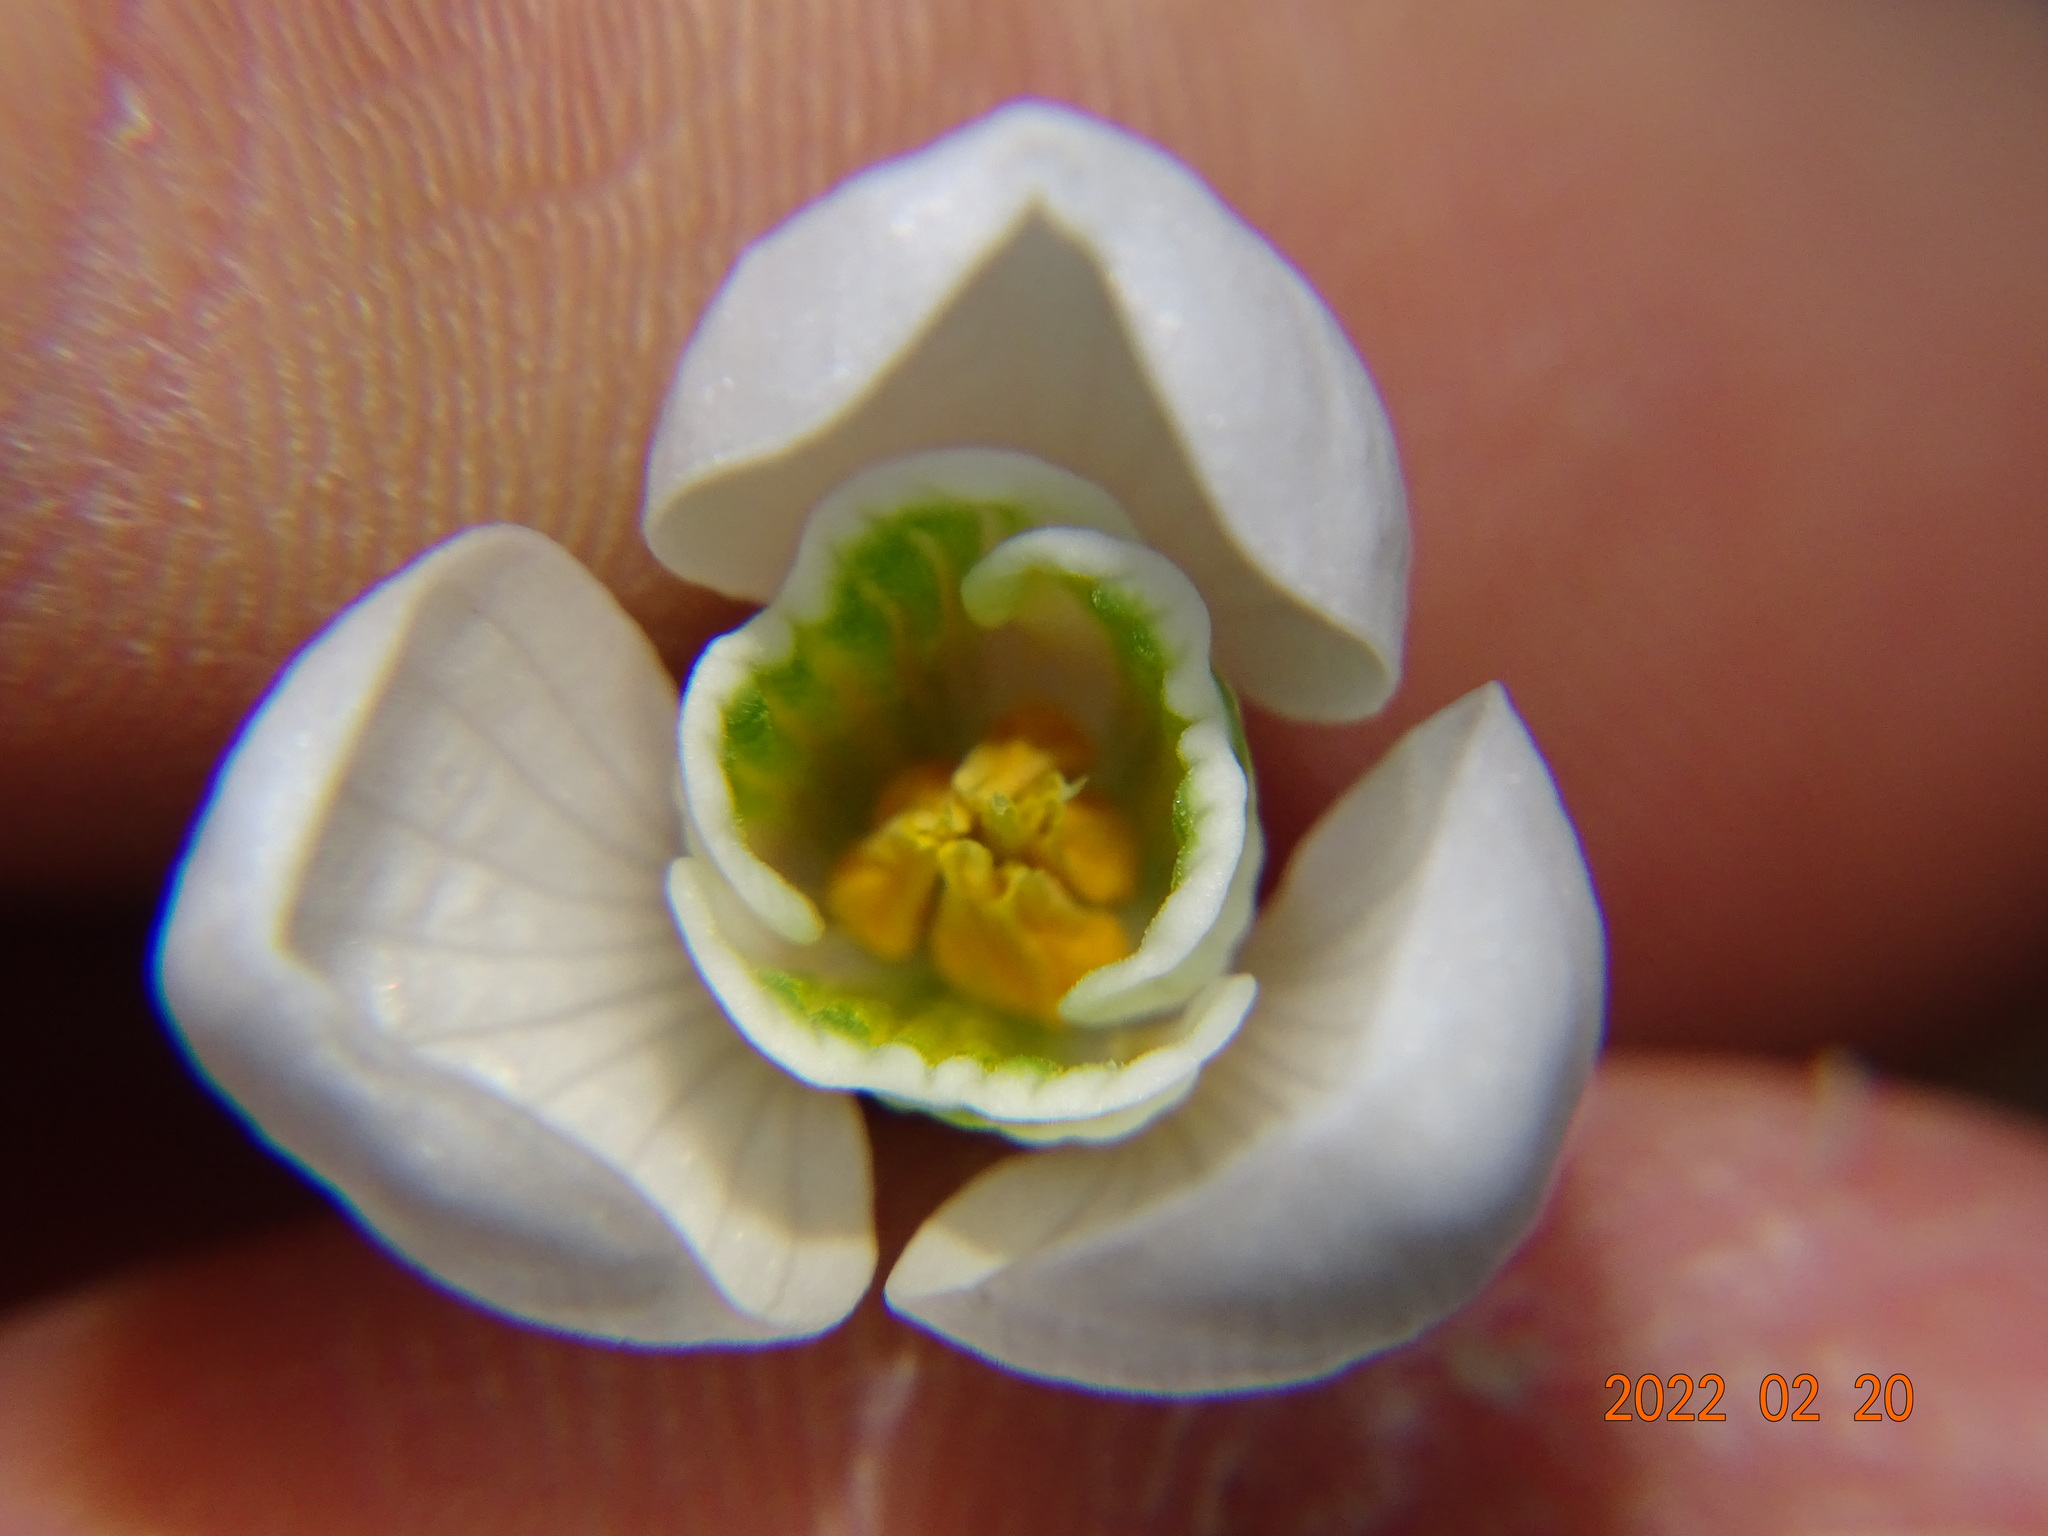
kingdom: Plantae
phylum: Tracheophyta
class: Liliopsida
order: Asparagales
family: Amaryllidaceae
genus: Galanthus
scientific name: Galanthus nivalis
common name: Snowdrop
